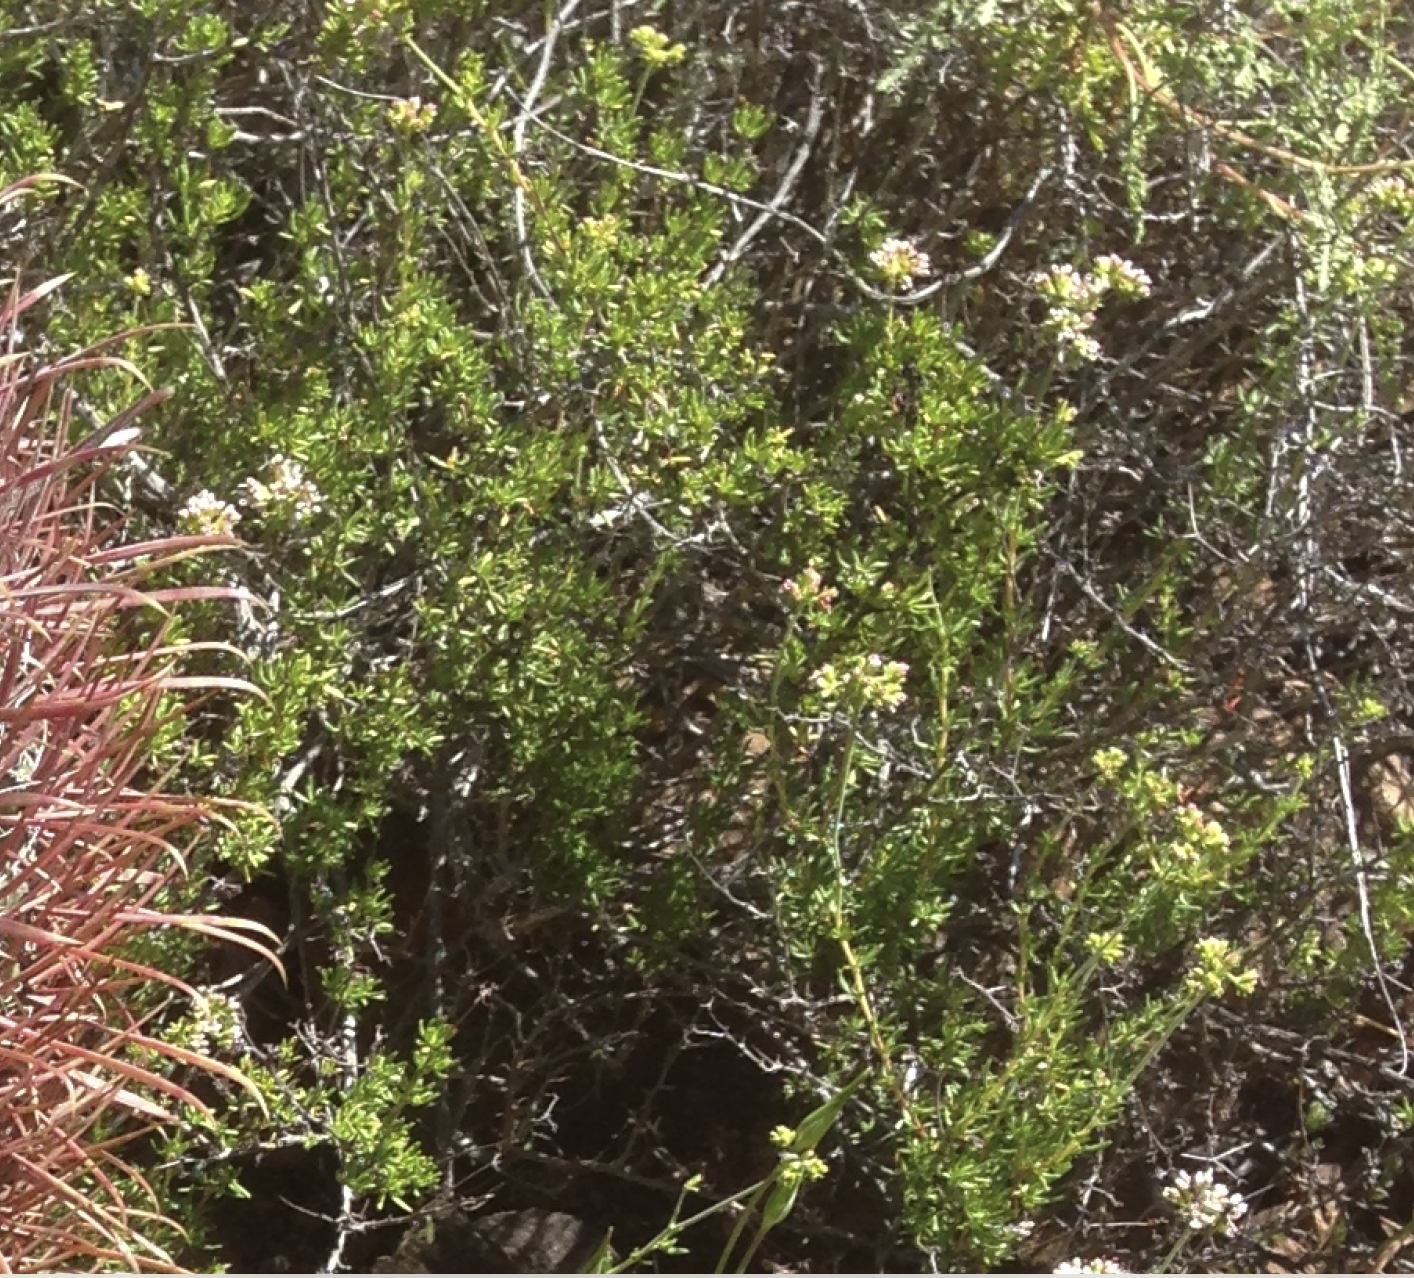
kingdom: Plantae
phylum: Tracheophyta
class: Magnoliopsida
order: Caryophyllales
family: Polygonaceae
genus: Eriogonum
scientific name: Eriogonum fasciculatum
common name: California wild buckwheat
